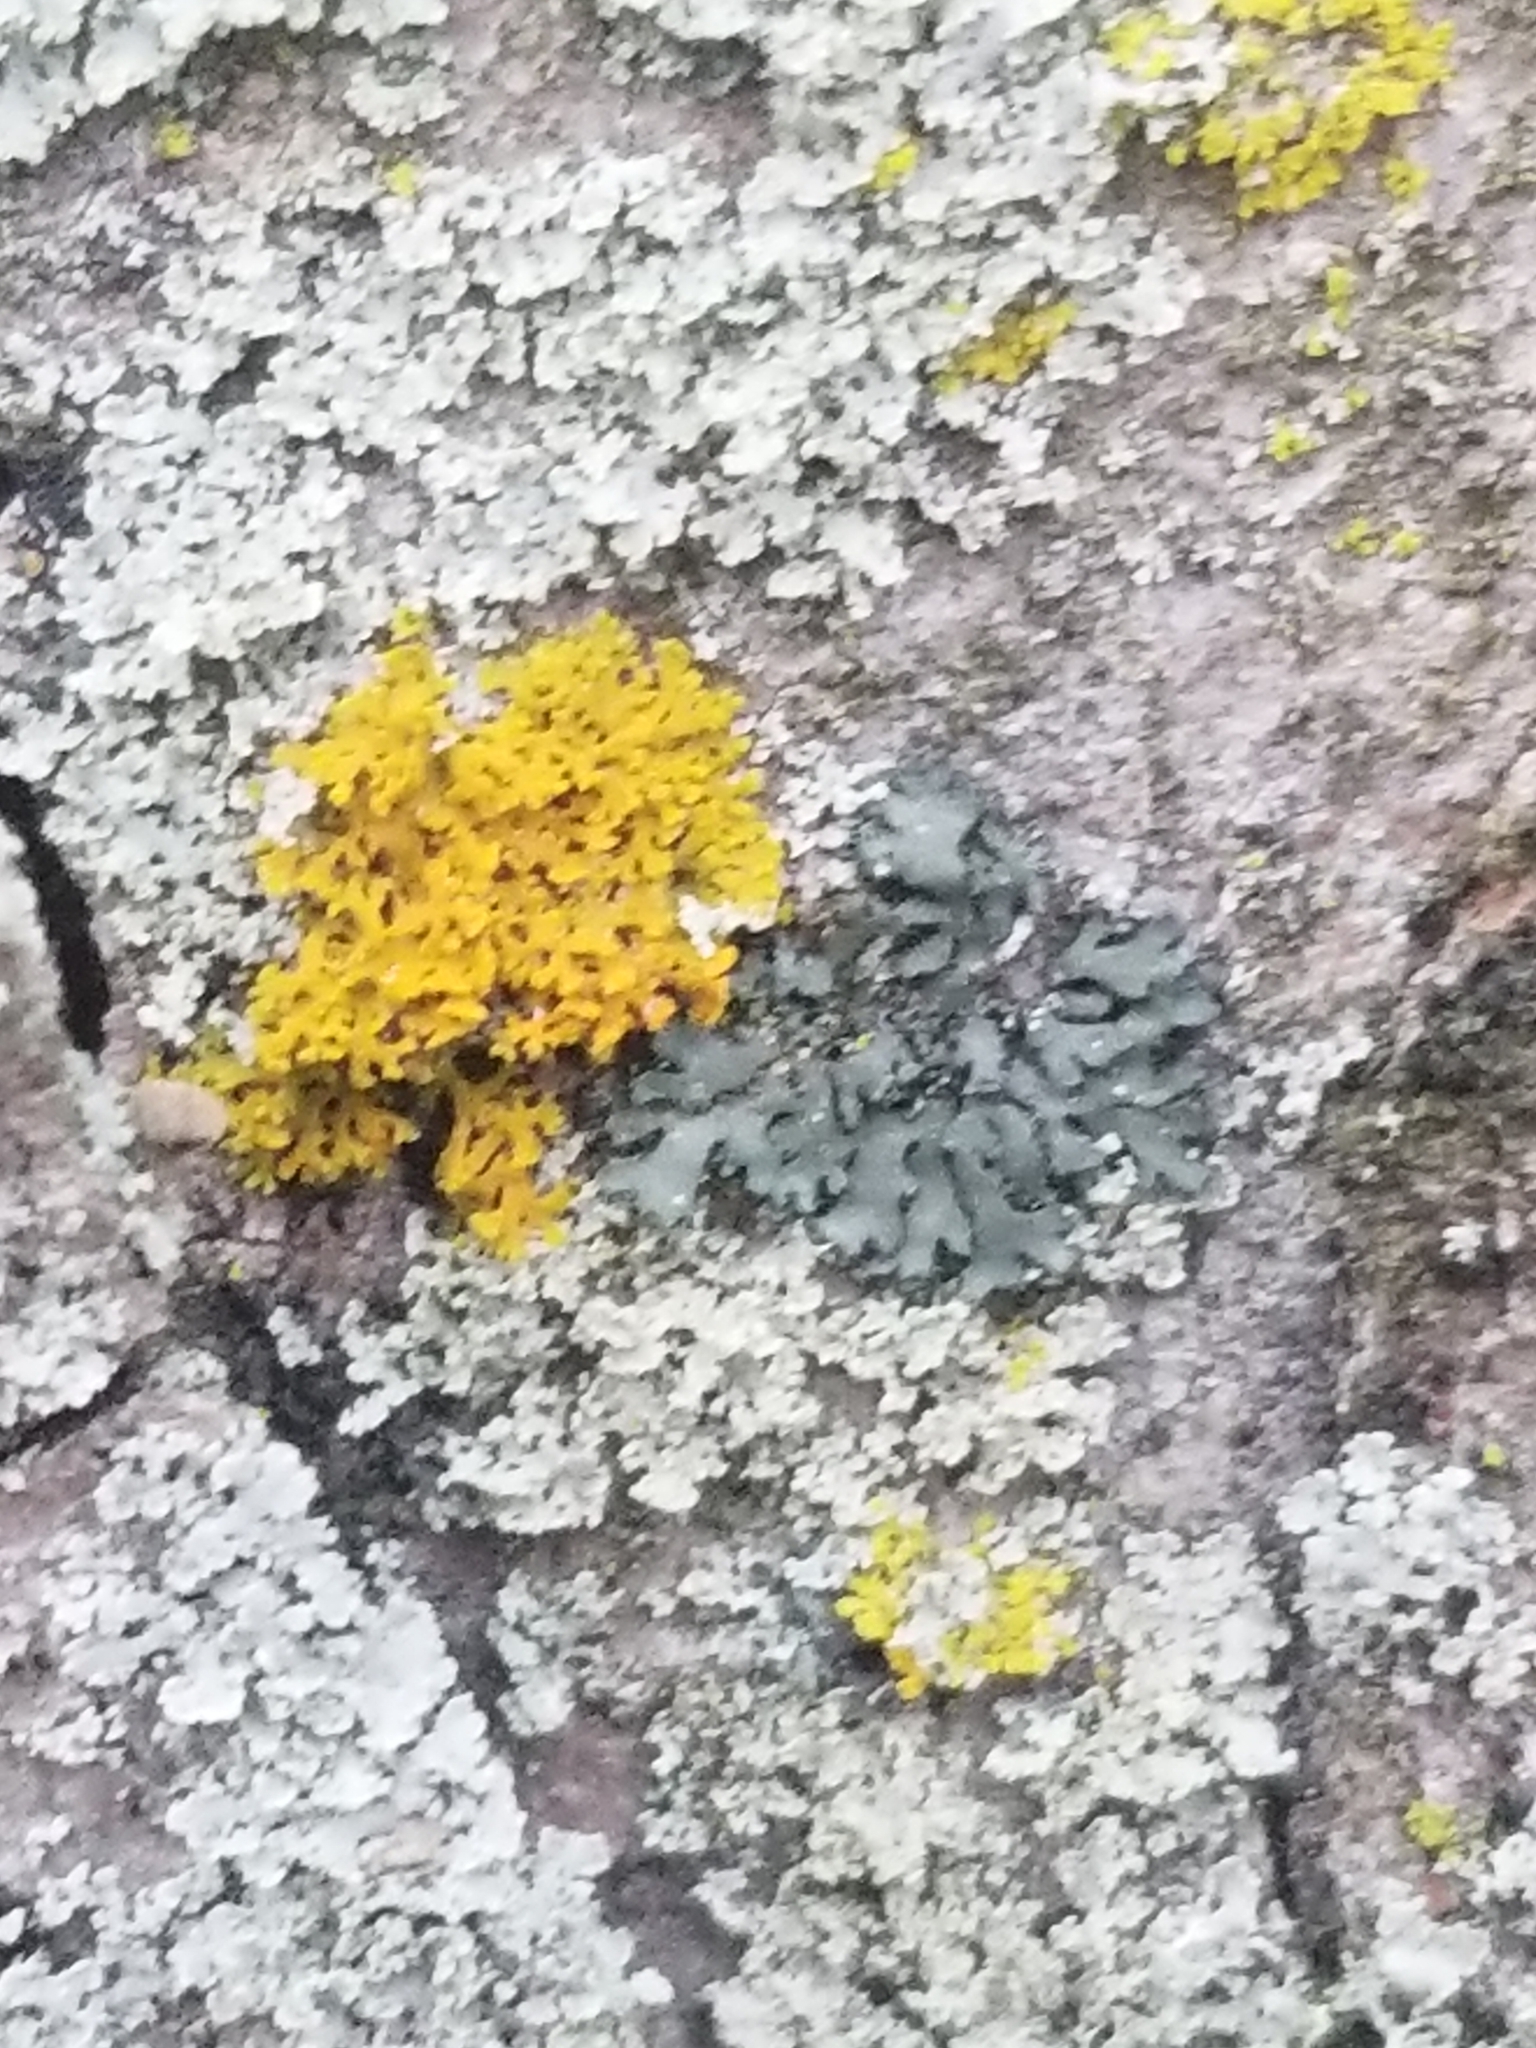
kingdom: Fungi
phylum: Ascomycota
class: Lecanoromycetes
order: Teloschistales
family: Teloschistaceae
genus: Gallowayella
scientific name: Gallowayella weberi
